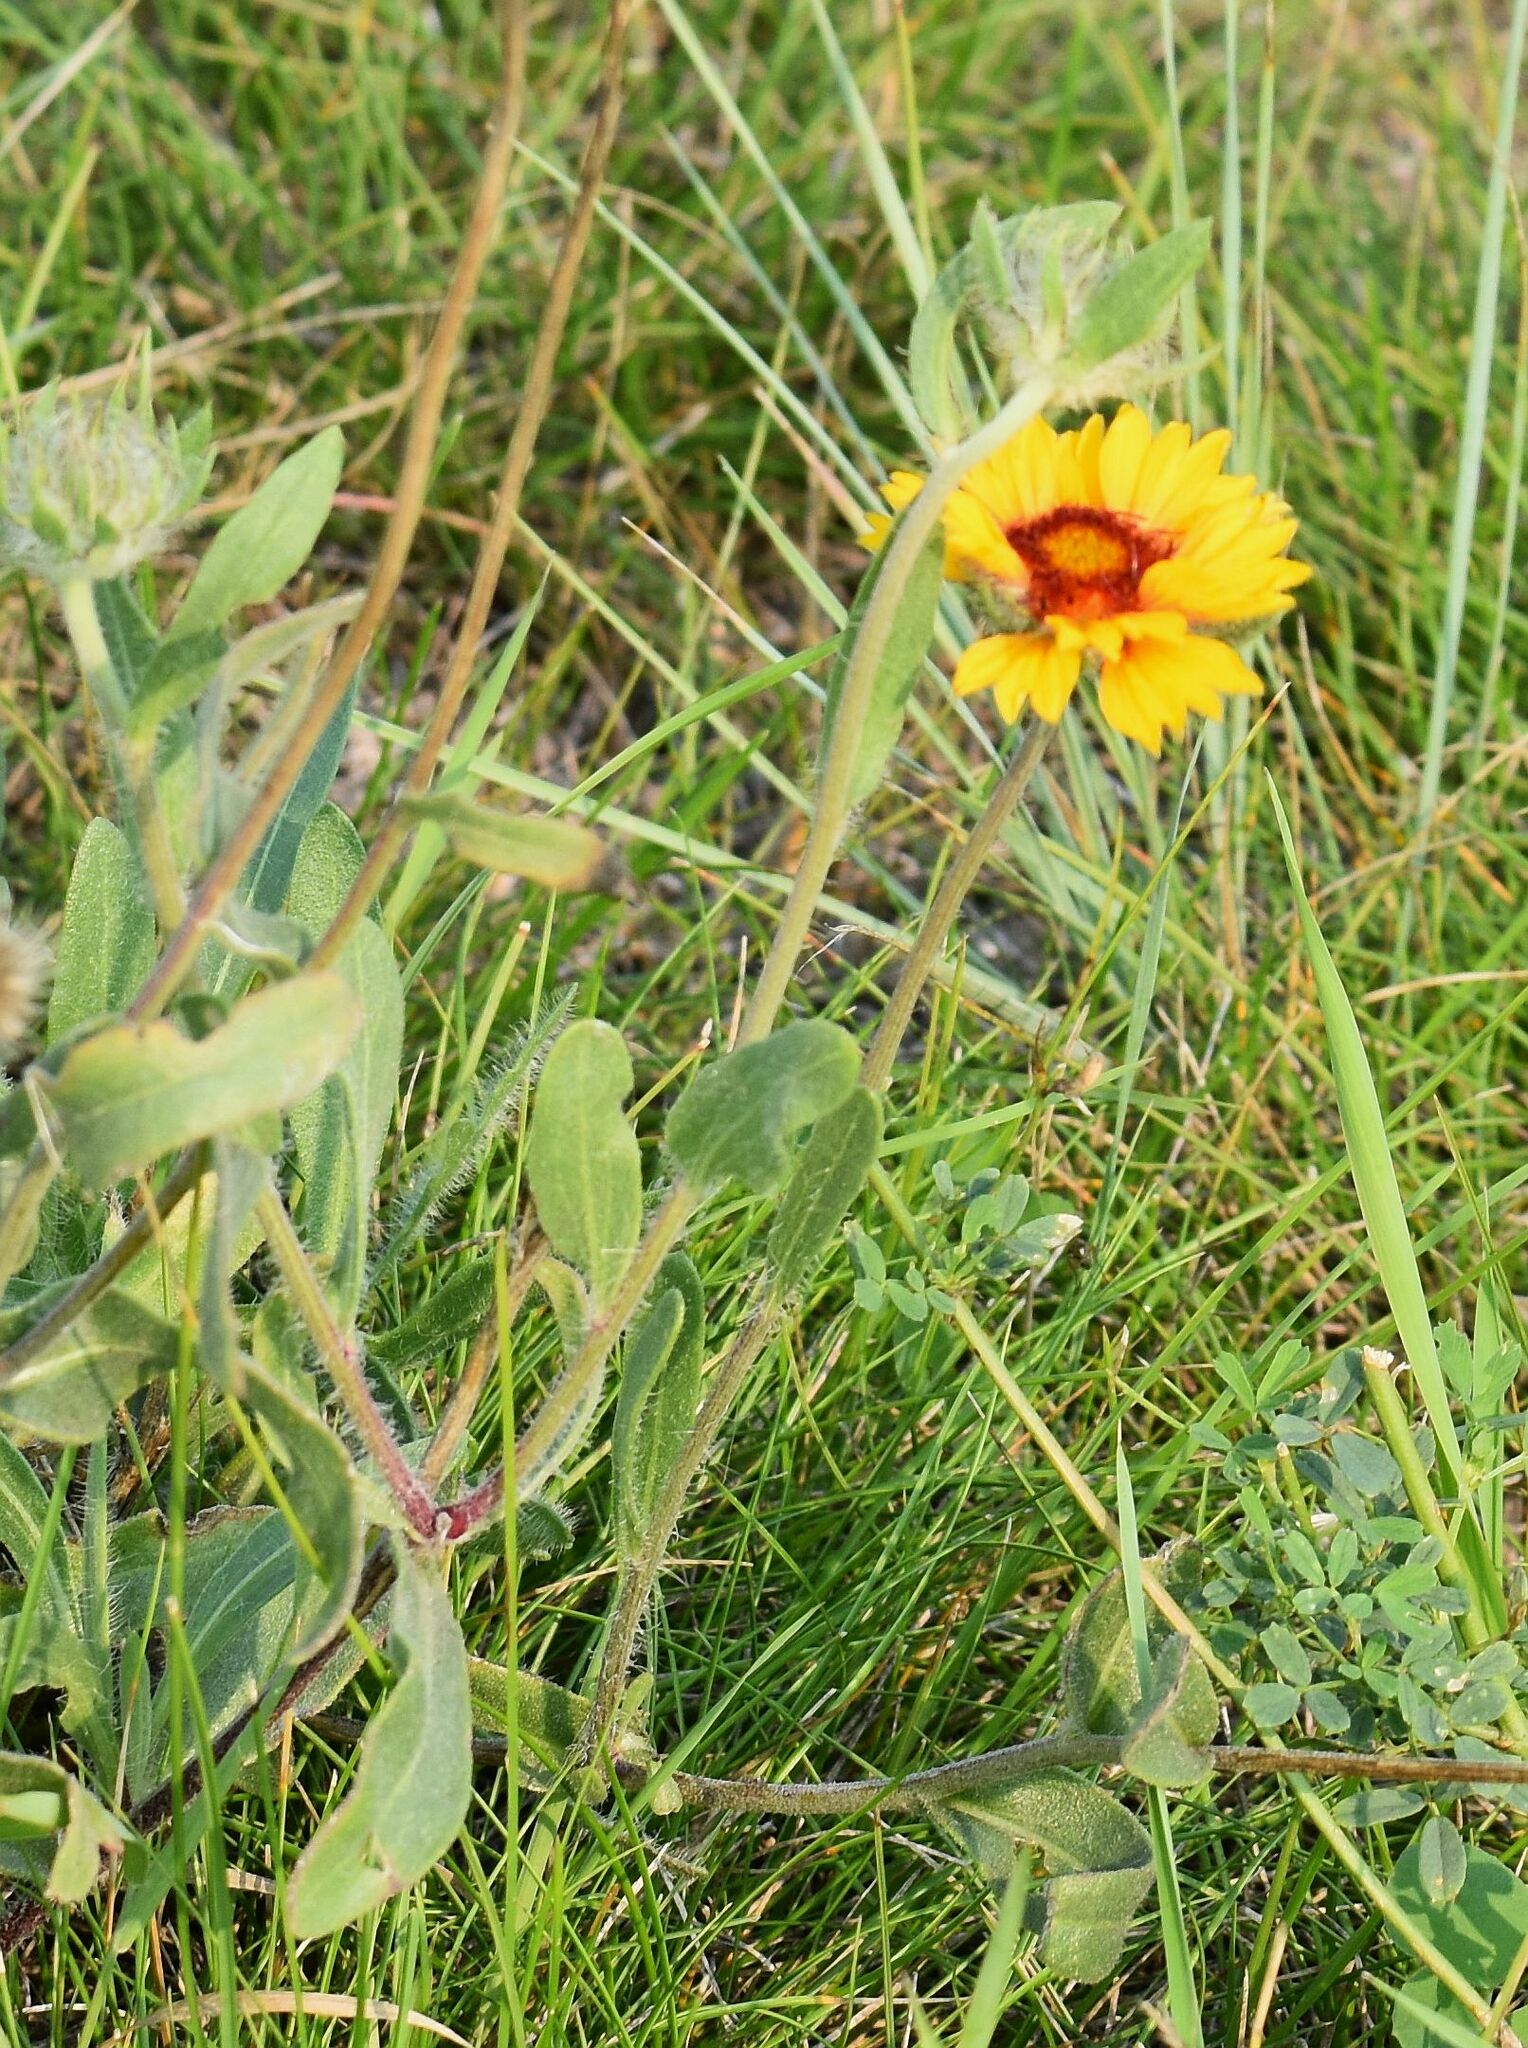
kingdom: Plantae
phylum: Tracheophyta
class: Magnoliopsida
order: Asterales
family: Asteraceae
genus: Gaillardia
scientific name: Gaillardia aristata
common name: Blanket-flower
